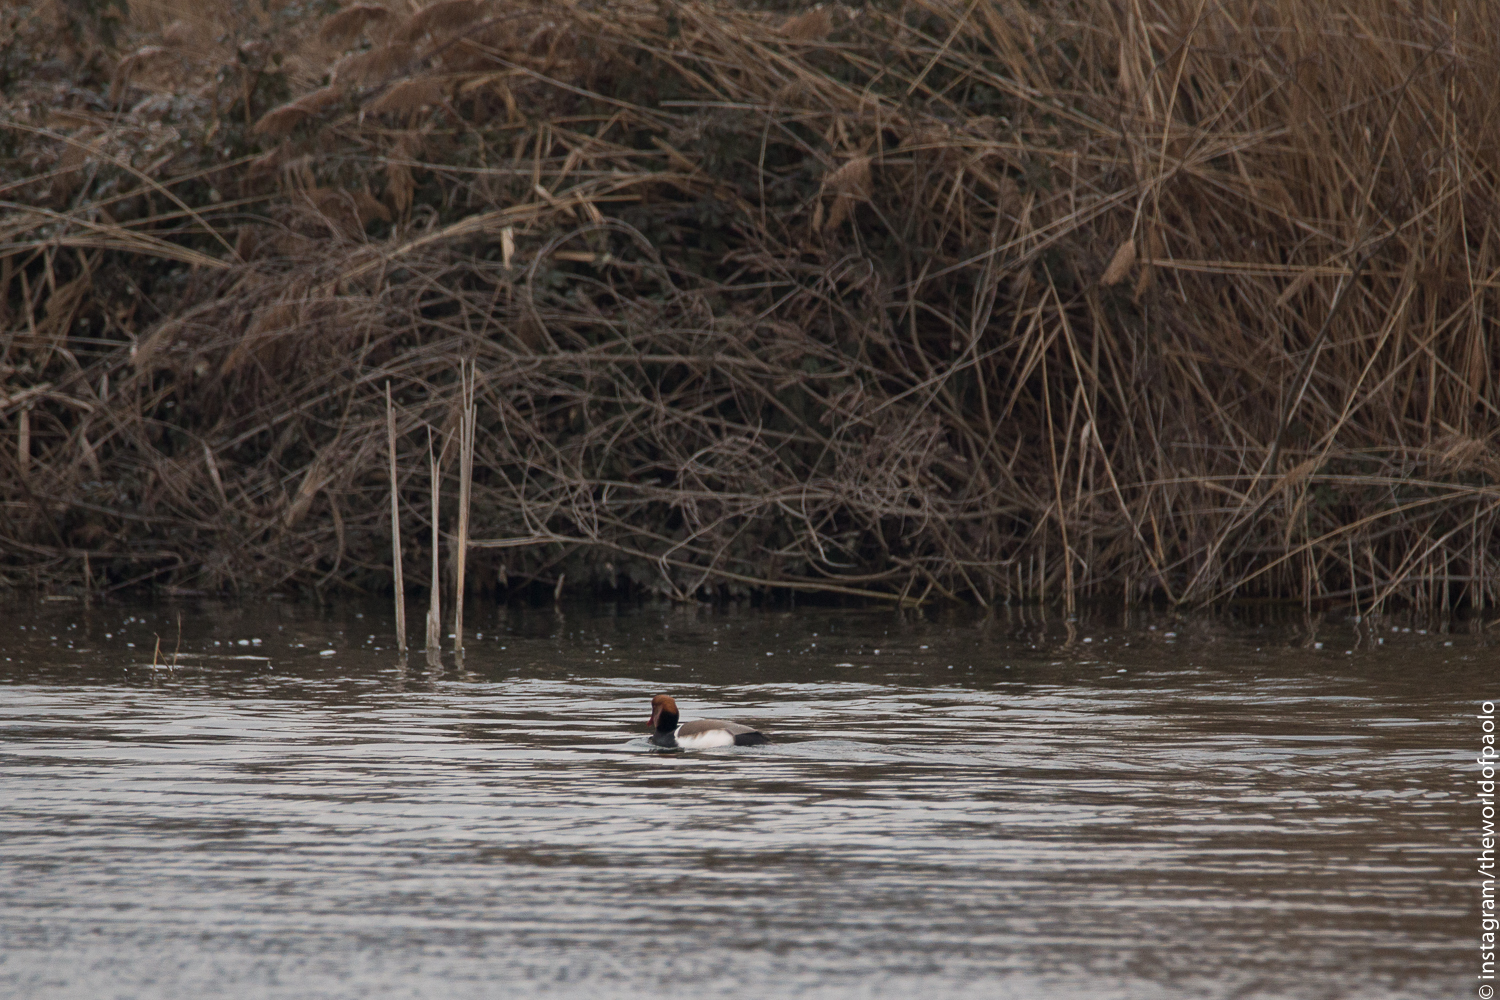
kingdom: Animalia
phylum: Chordata
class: Aves
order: Anseriformes
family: Anatidae
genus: Netta
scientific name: Netta rufina
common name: Red-crested pochard
